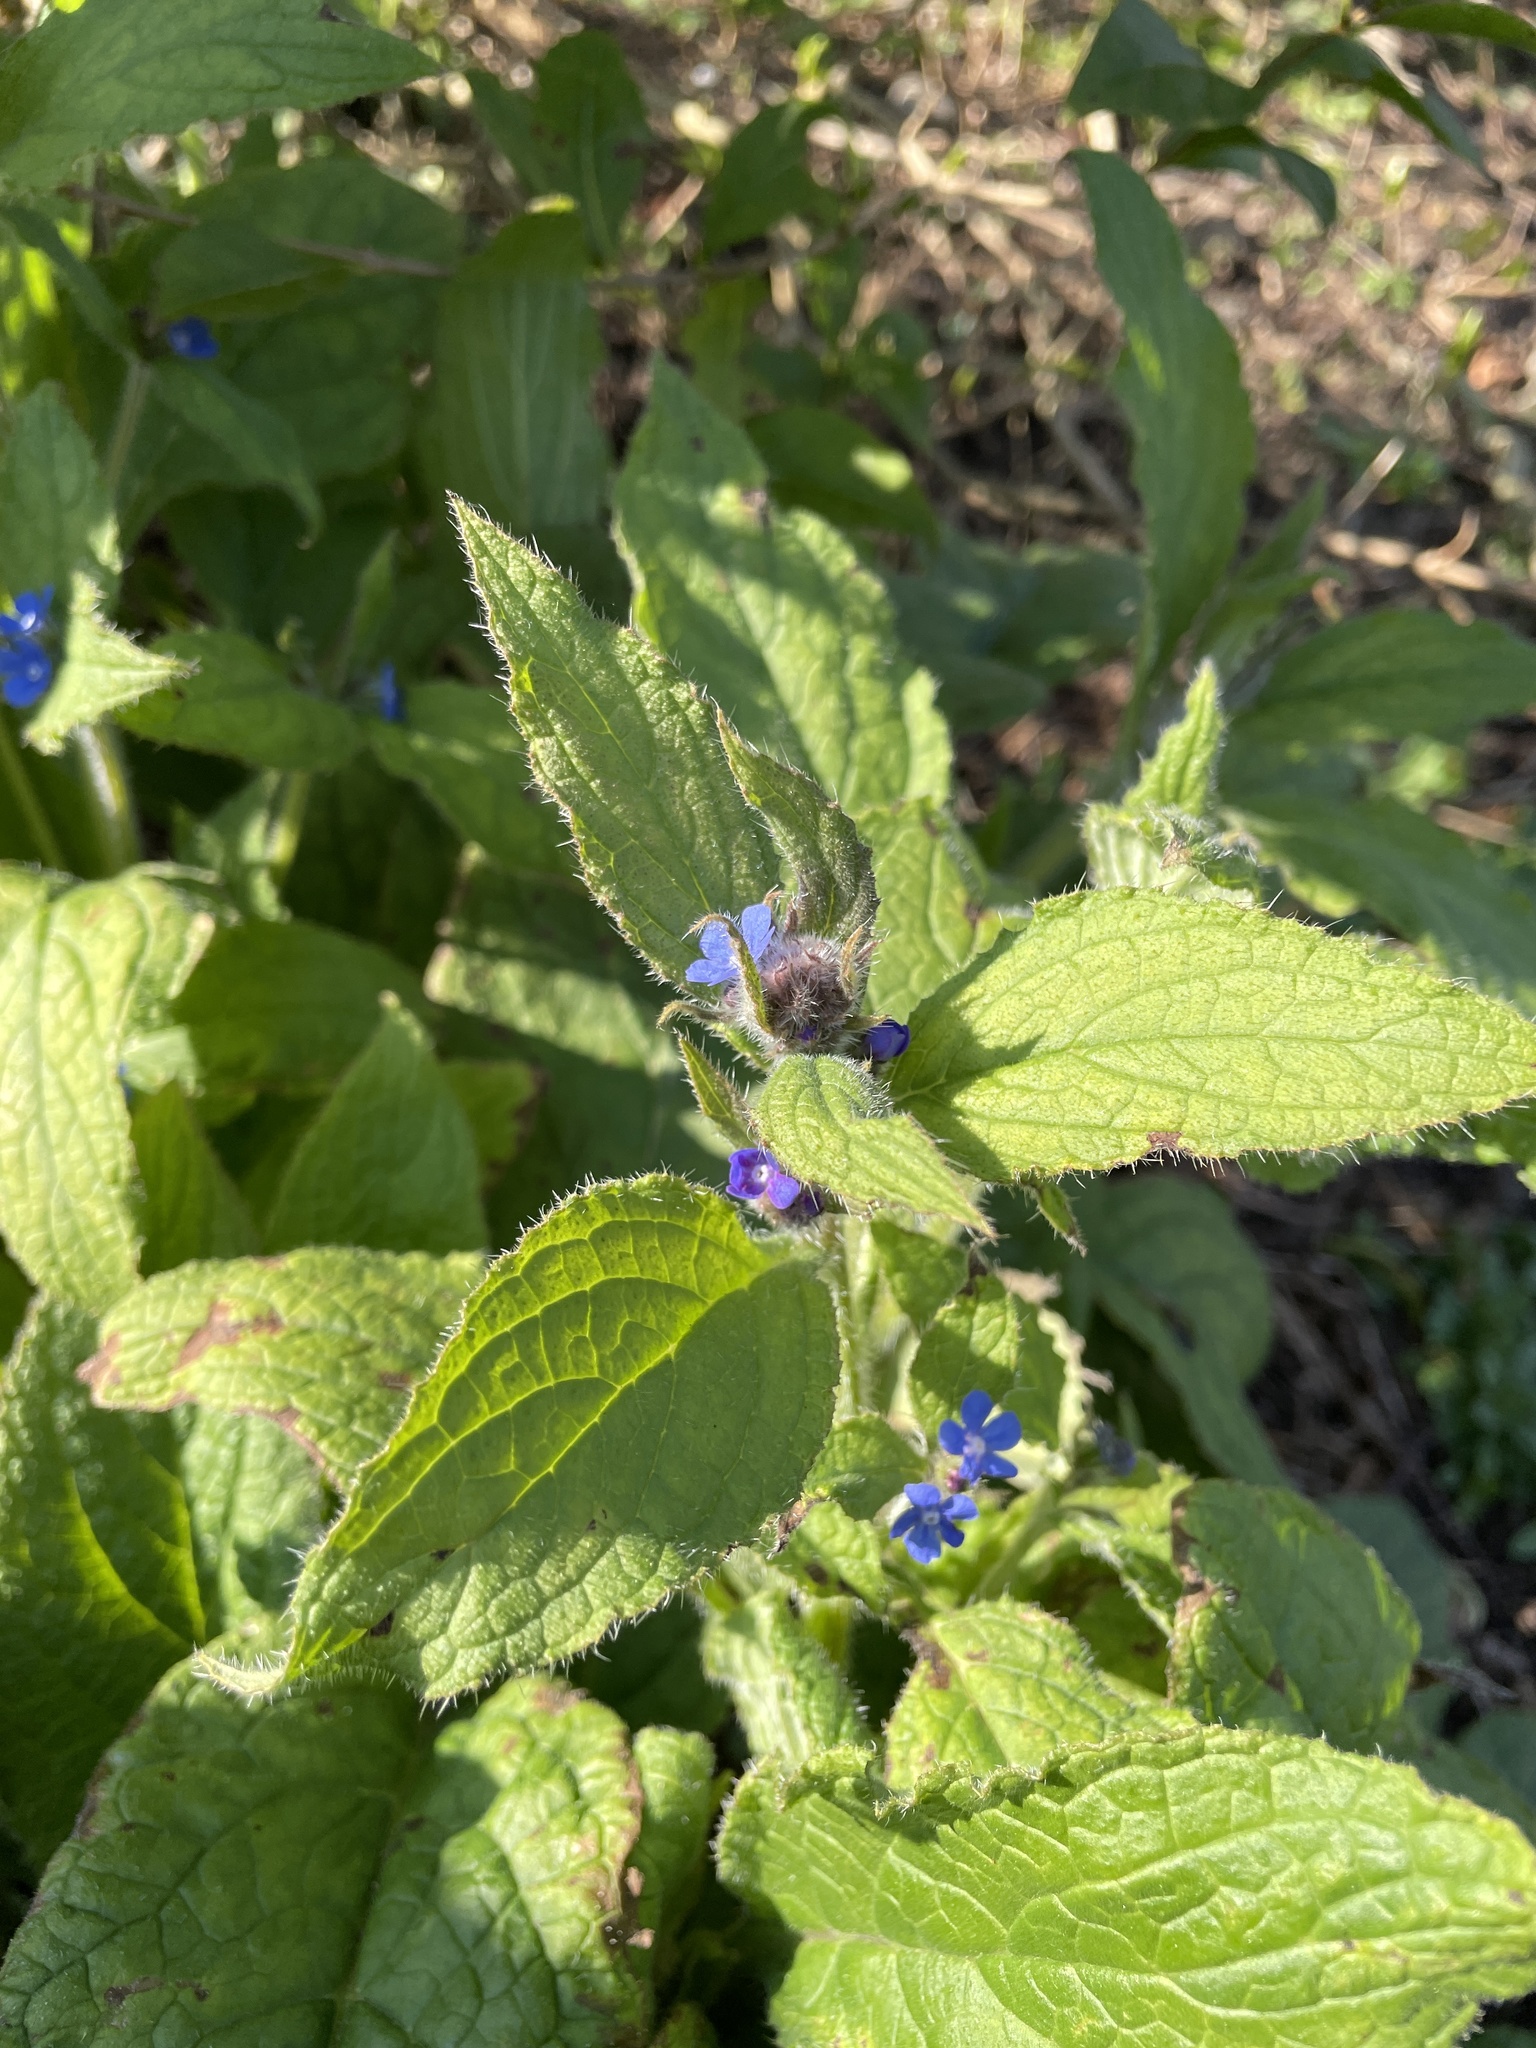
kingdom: Plantae
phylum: Tracheophyta
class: Magnoliopsida
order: Boraginales
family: Boraginaceae
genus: Pentaglottis
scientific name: Pentaglottis sempervirens
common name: Green alkanet
